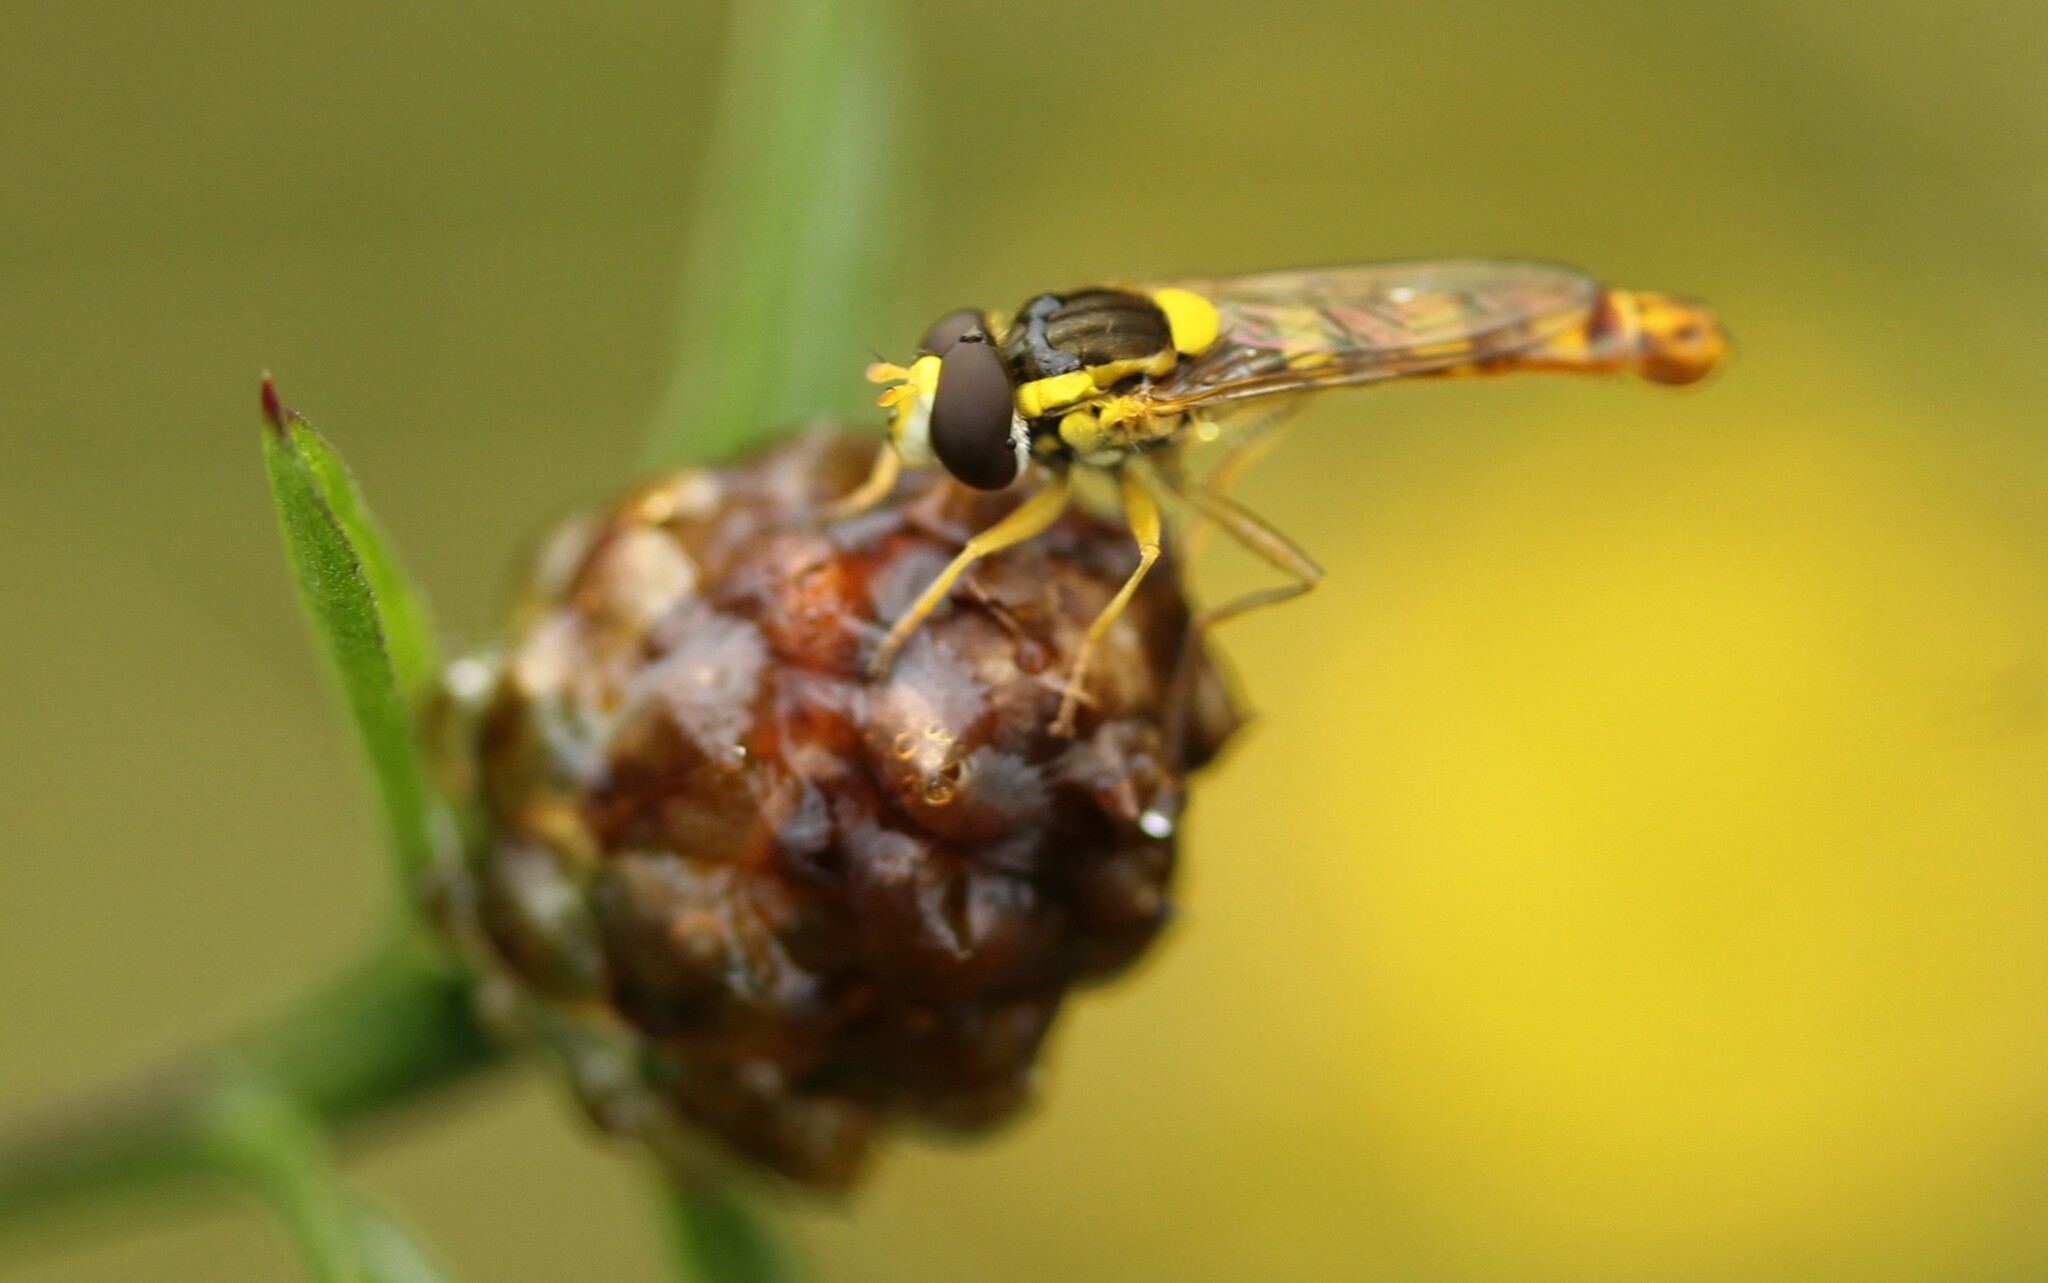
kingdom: Animalia
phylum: Arthropoda
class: Insecta
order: Diptera
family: Syrphidae
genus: Sphaerophoria
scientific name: Sphaerophoria scripta
